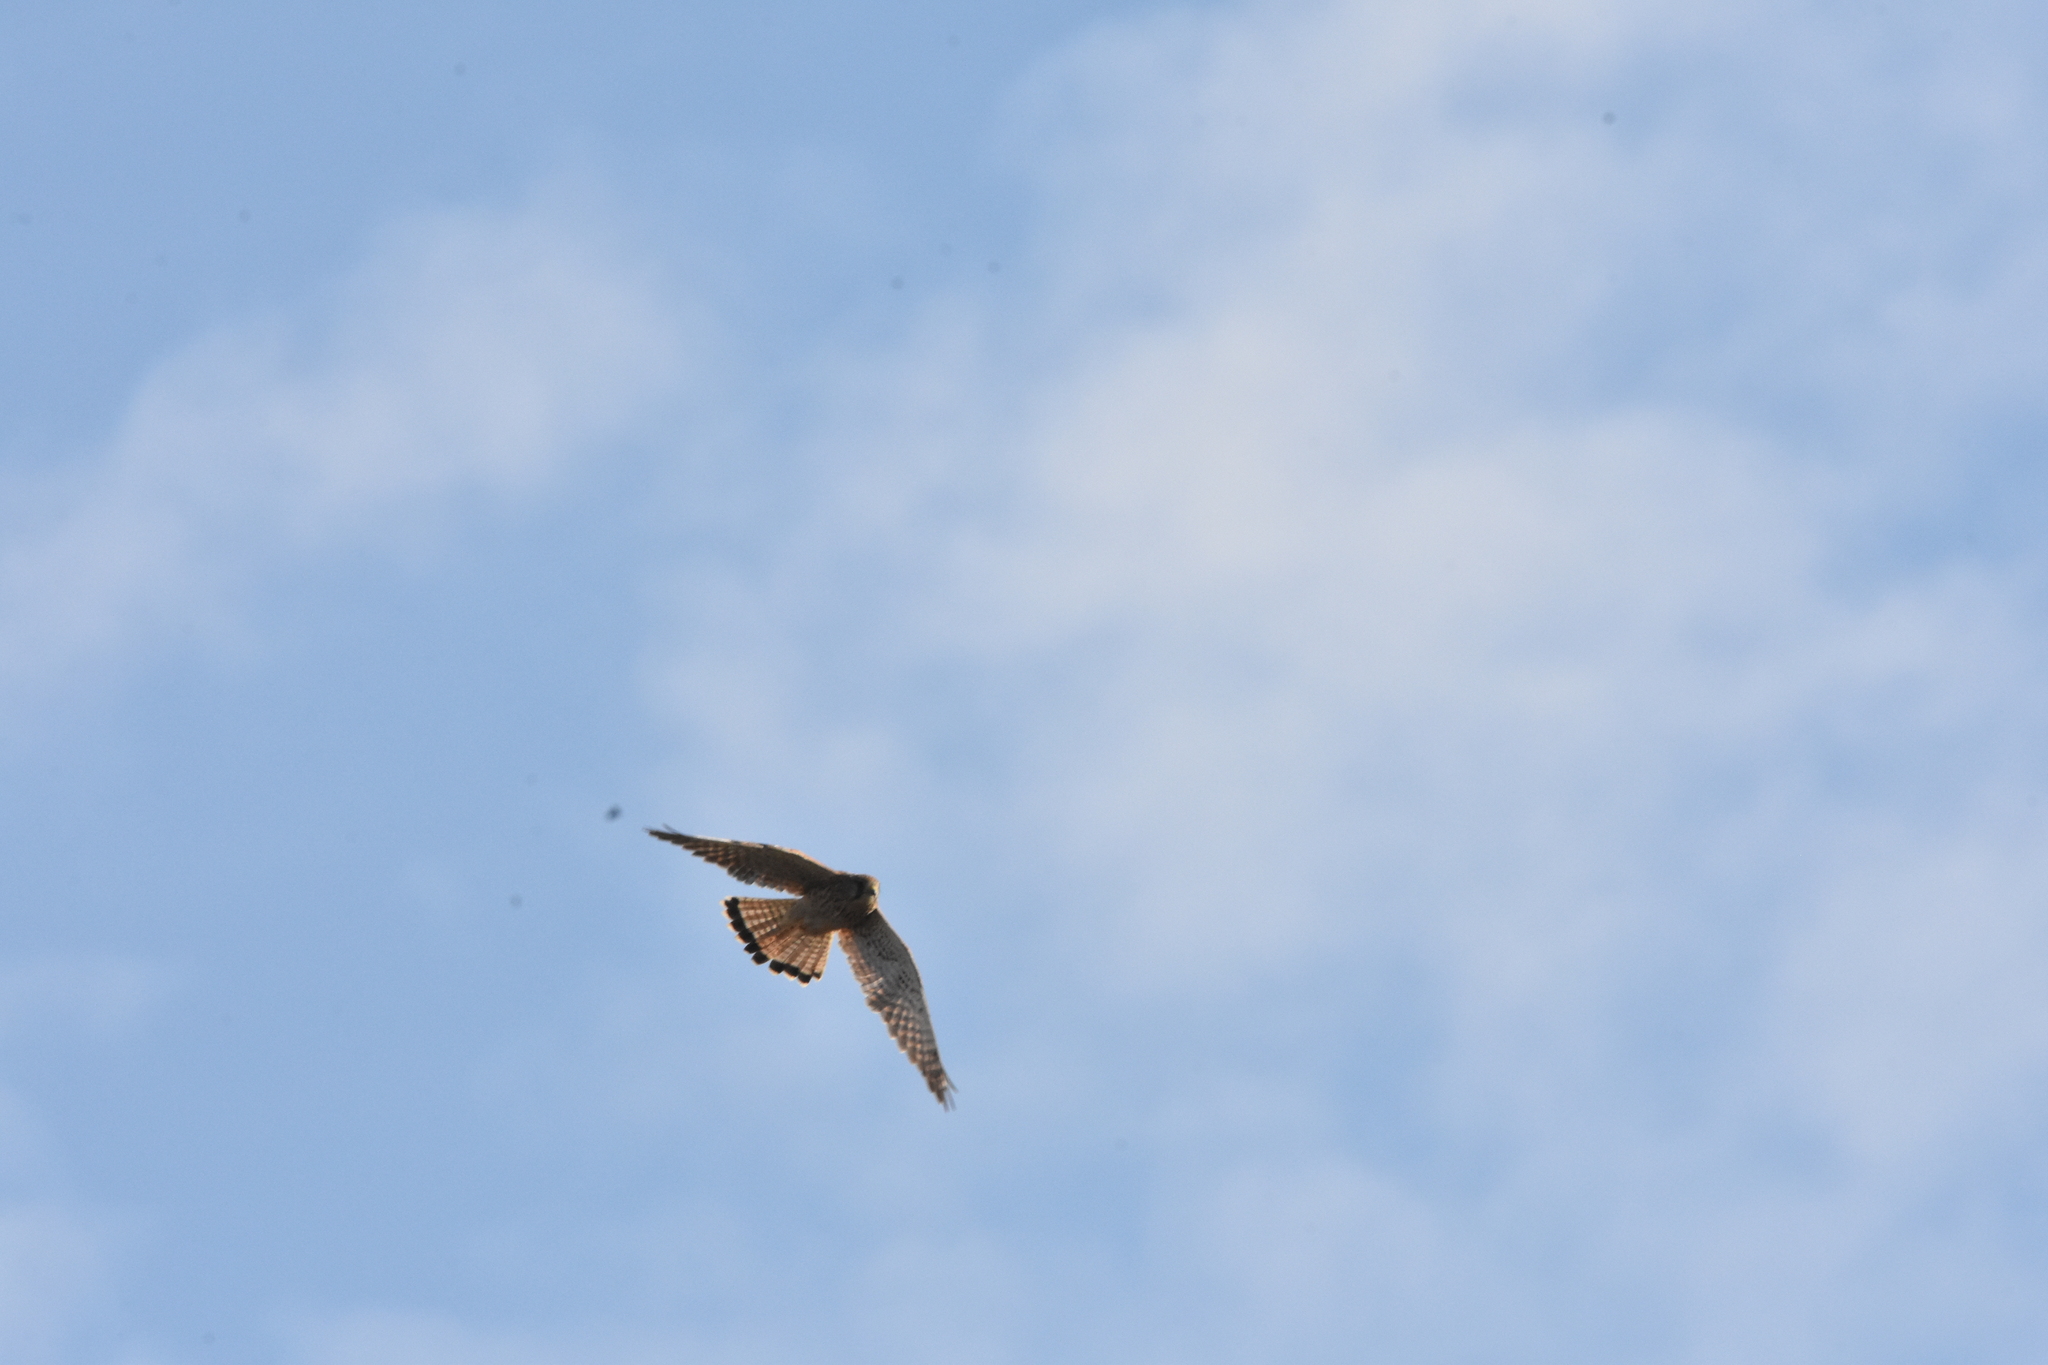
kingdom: Animalia
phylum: Chordata
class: Aves
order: Falconiformes
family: Falconidae
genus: Falco
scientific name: Falco tinnunculus
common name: Common kestrel
